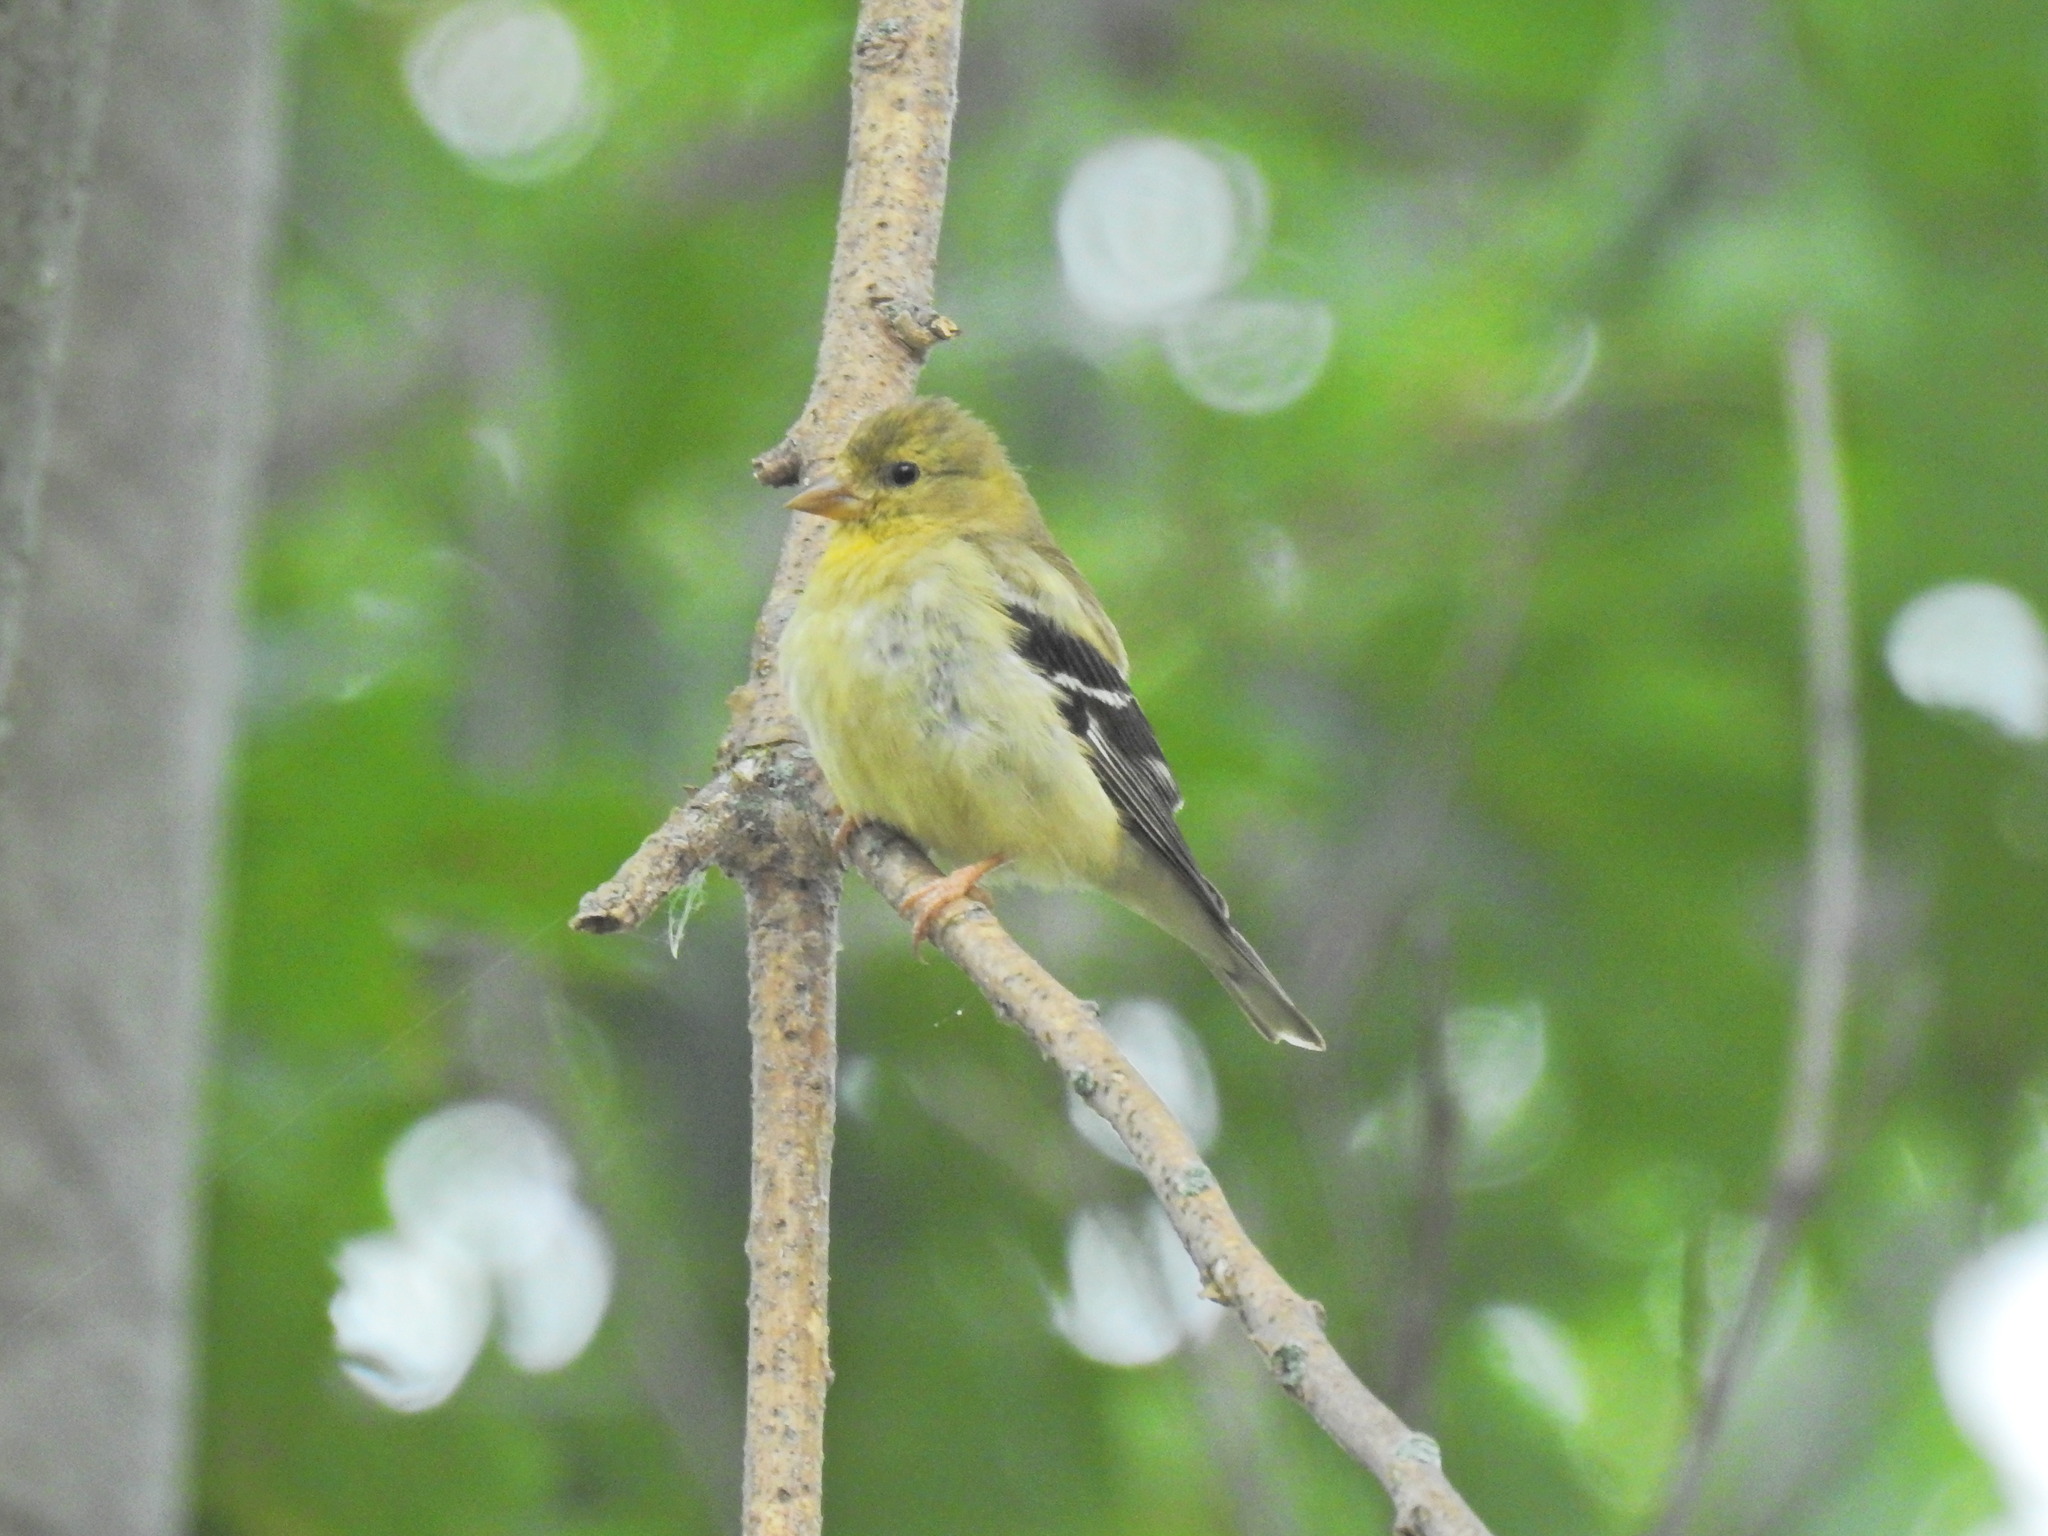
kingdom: Animalia
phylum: Chordata
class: Aves
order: Passeriformes
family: Fringillidae
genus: Spinus
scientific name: Spinus tristis
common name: American goldfinch
